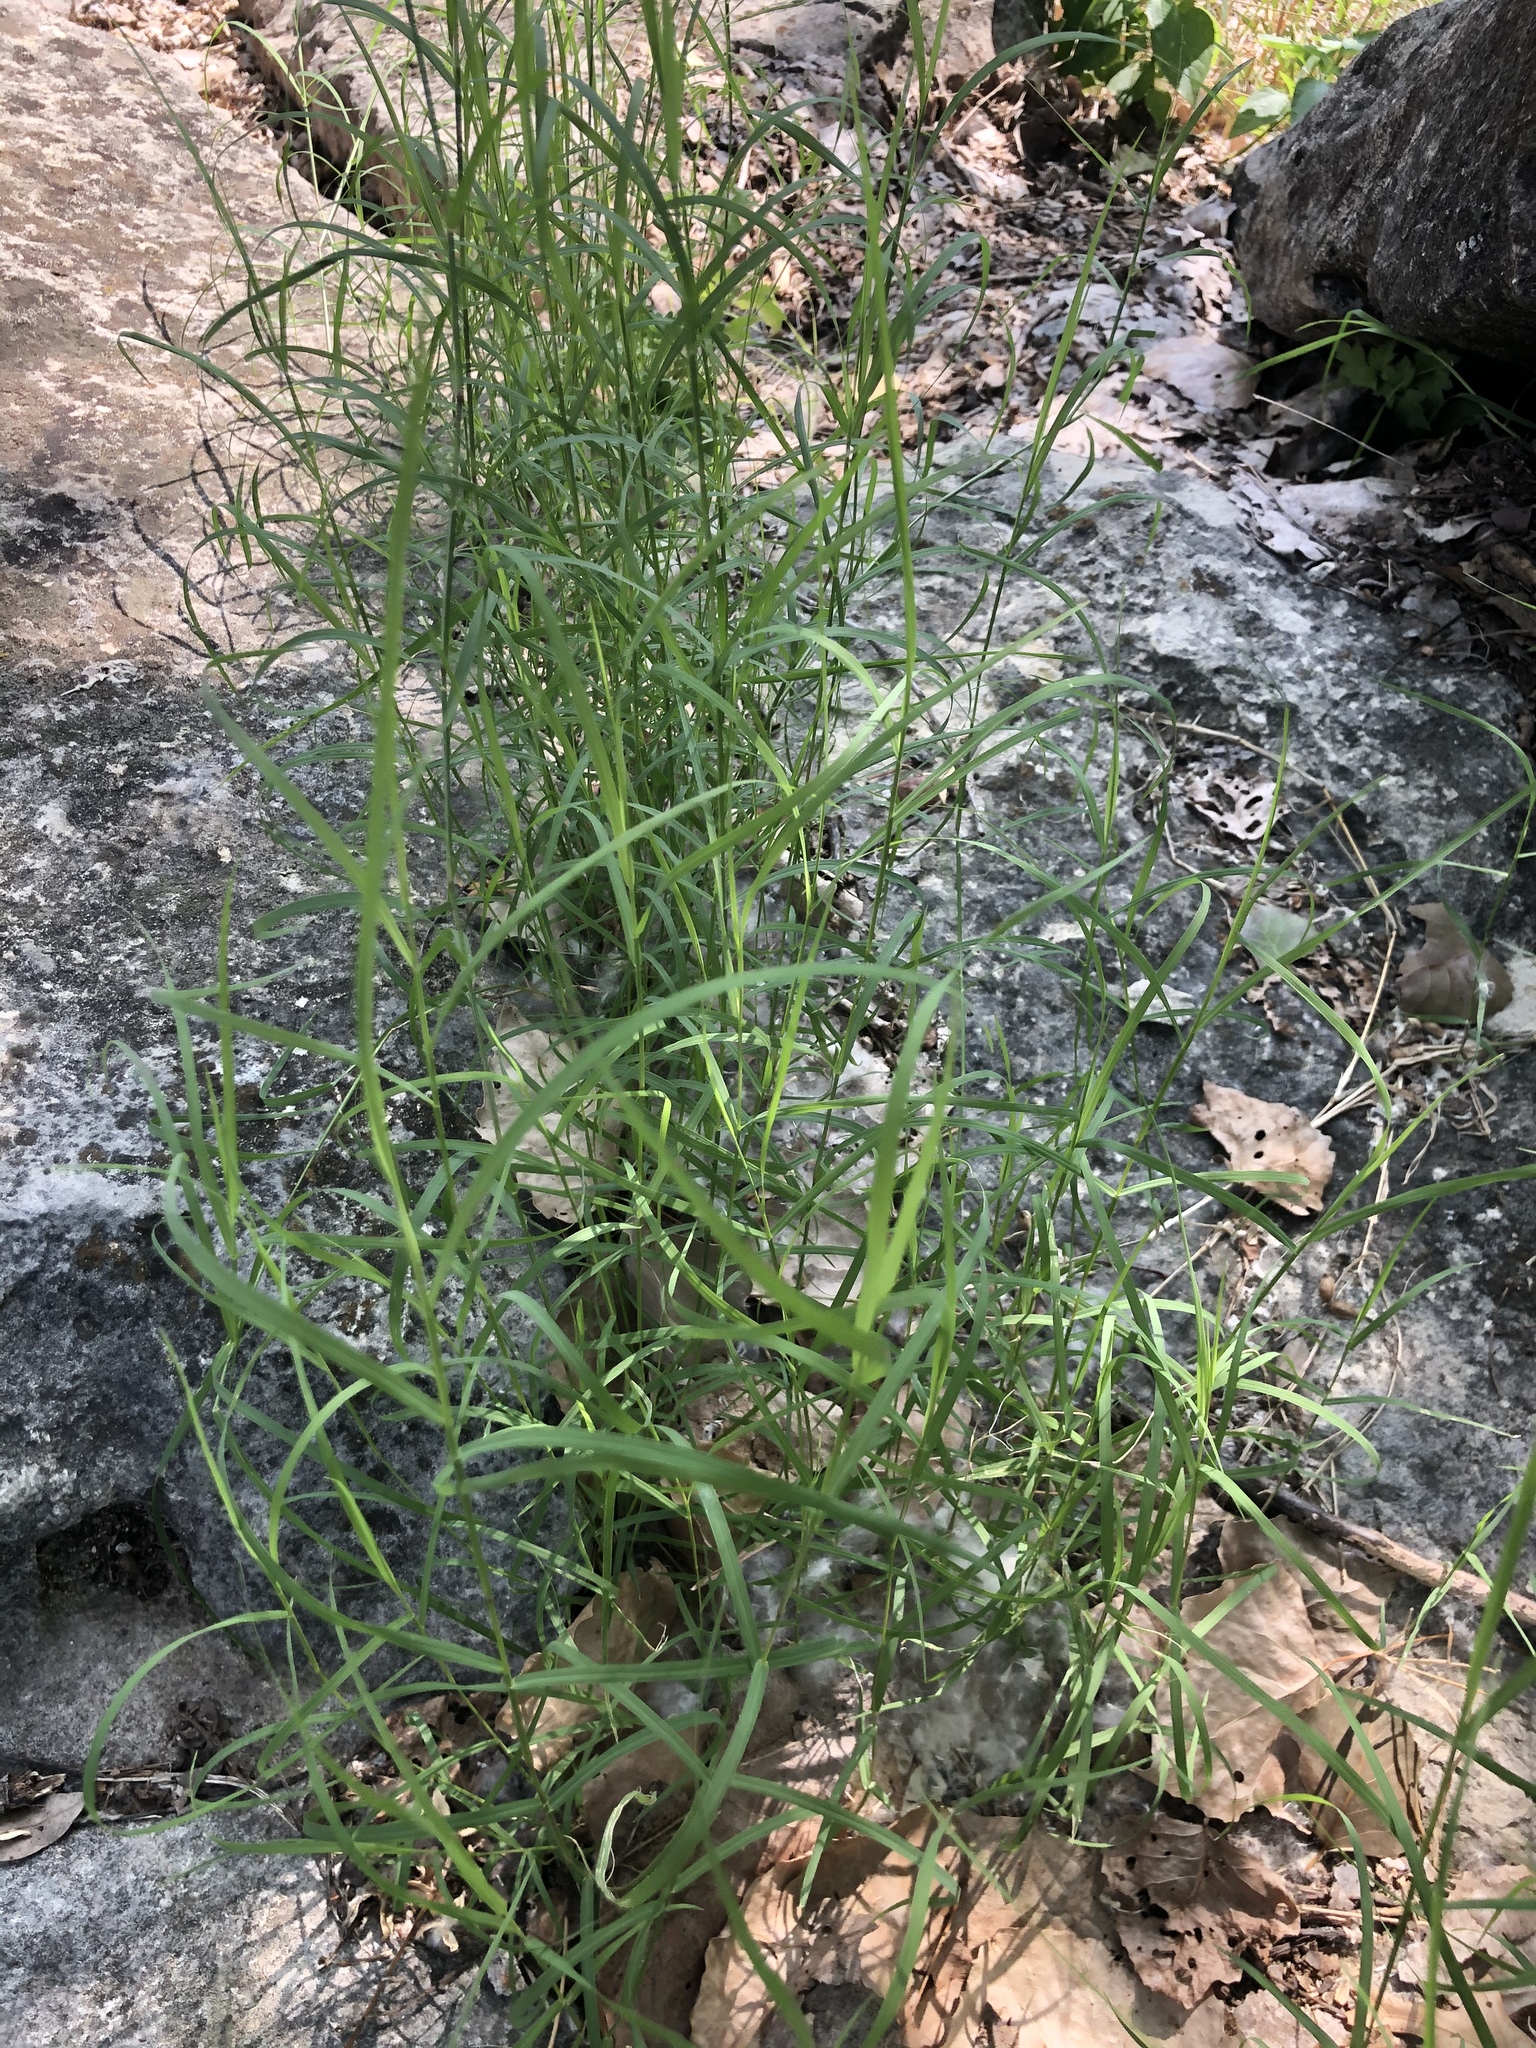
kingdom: Plantae
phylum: Tracheophyta
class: Liliopsida
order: Poales
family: Poaceae
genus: Cynodon
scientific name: Cynodon dactylon
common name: Bermuda grass
